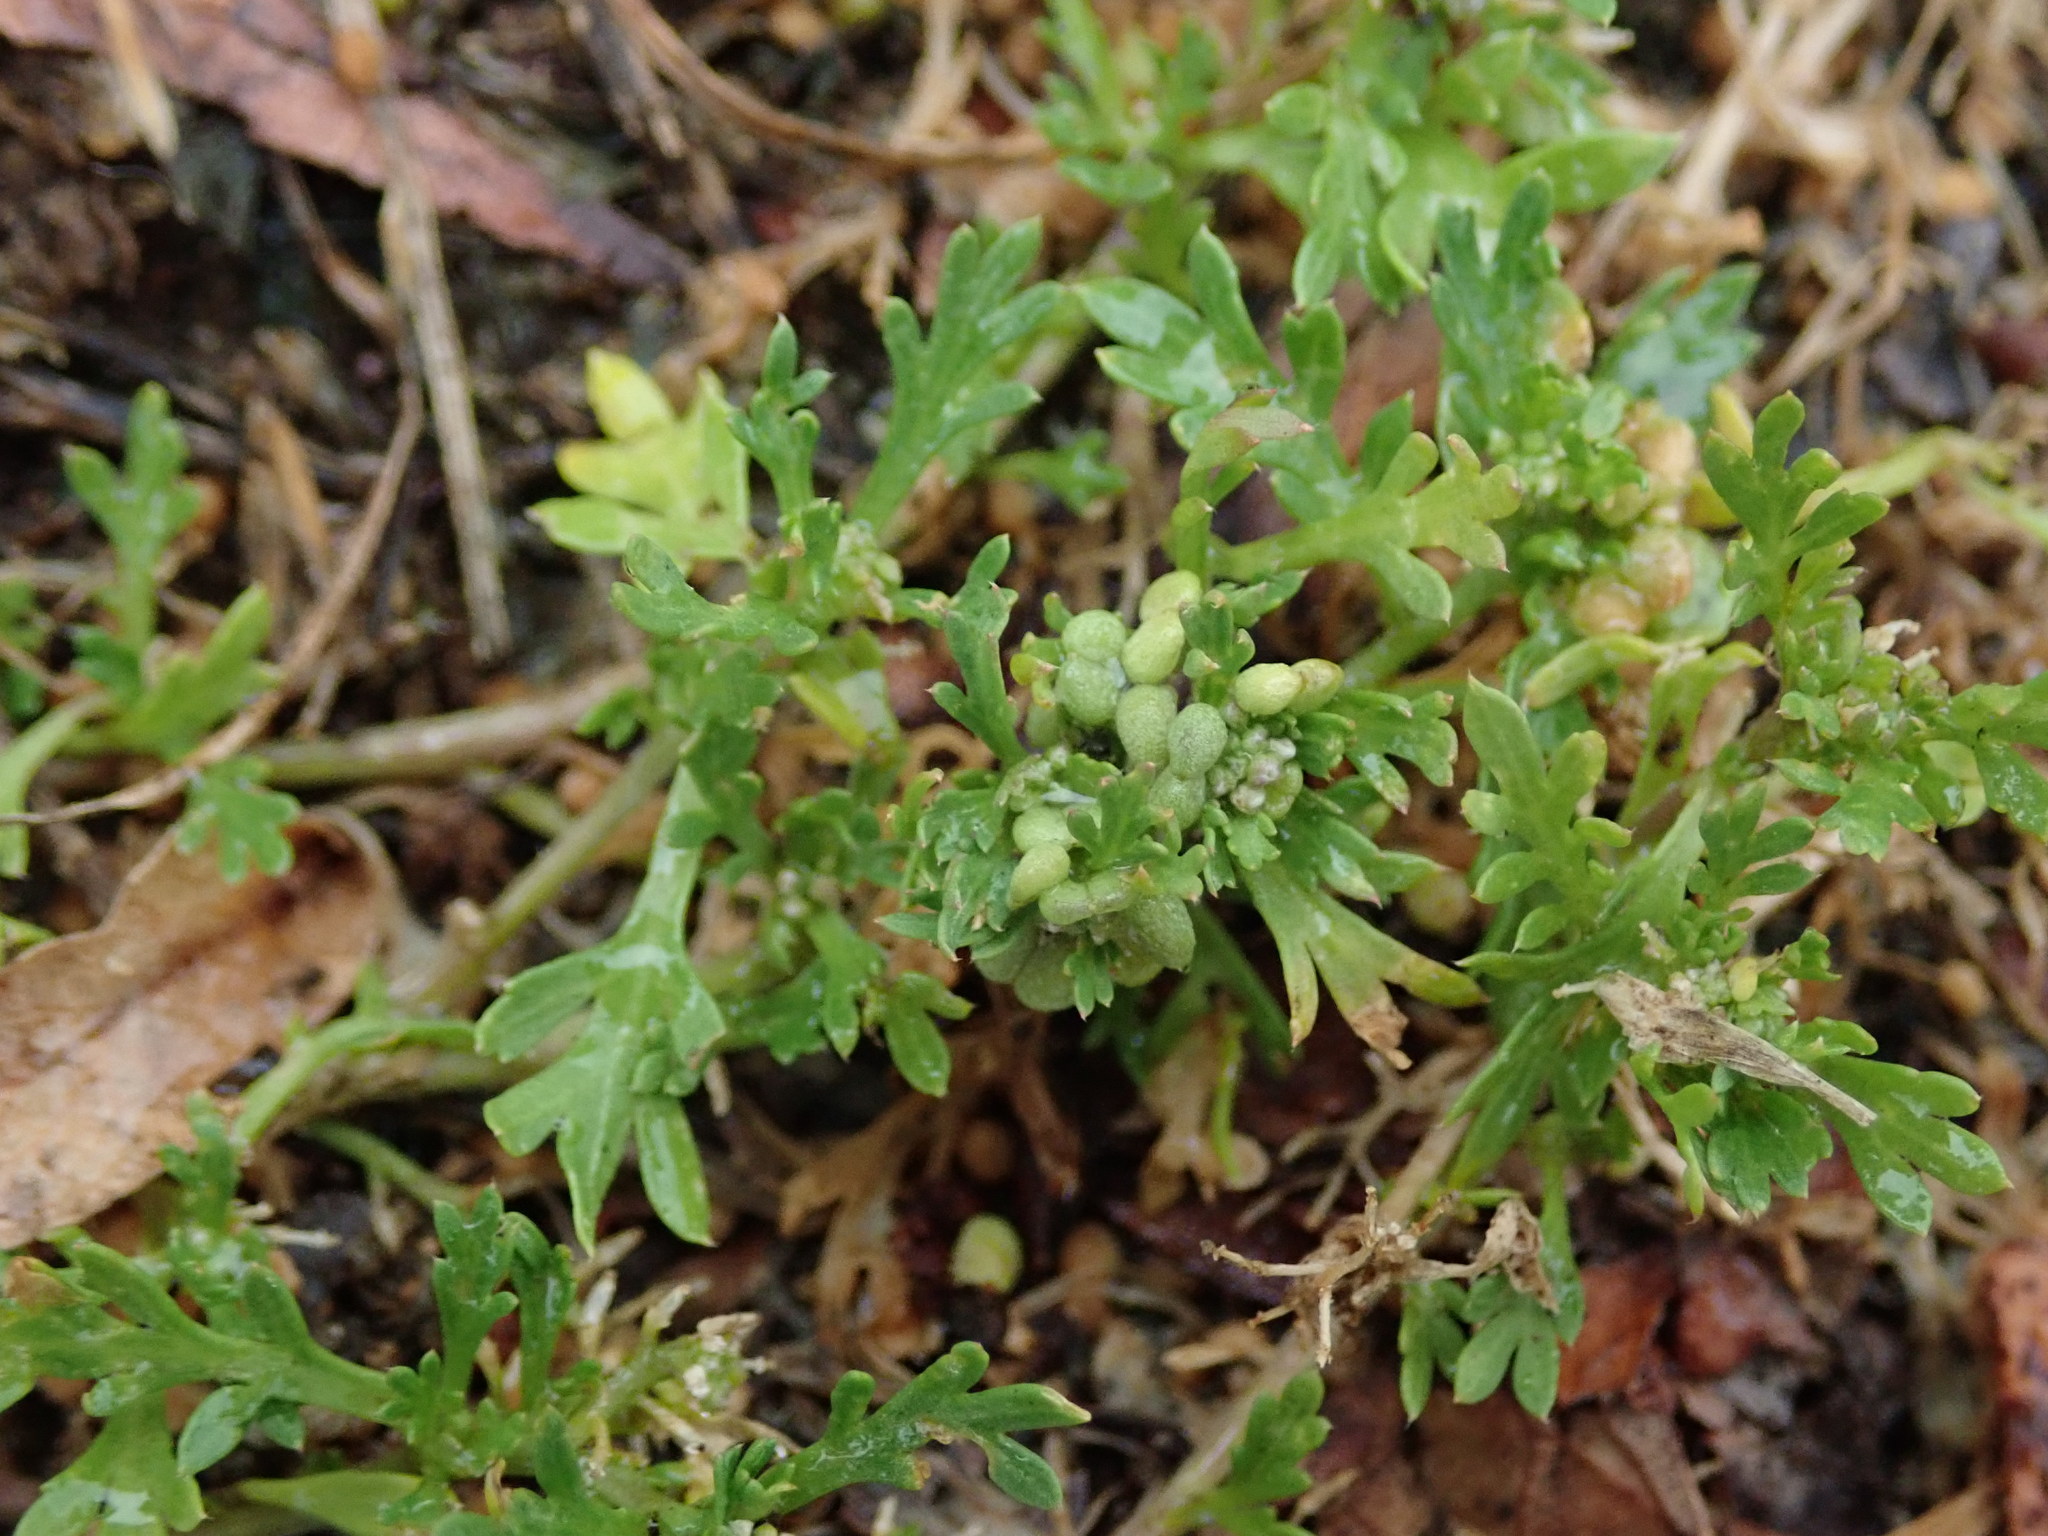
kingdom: Plantae
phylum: Tracheophyta
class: Magnoliopsida
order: Brassicales
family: Brassicaceae
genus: Lepidium
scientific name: Lepidium didymum
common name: Lesser swinecress
